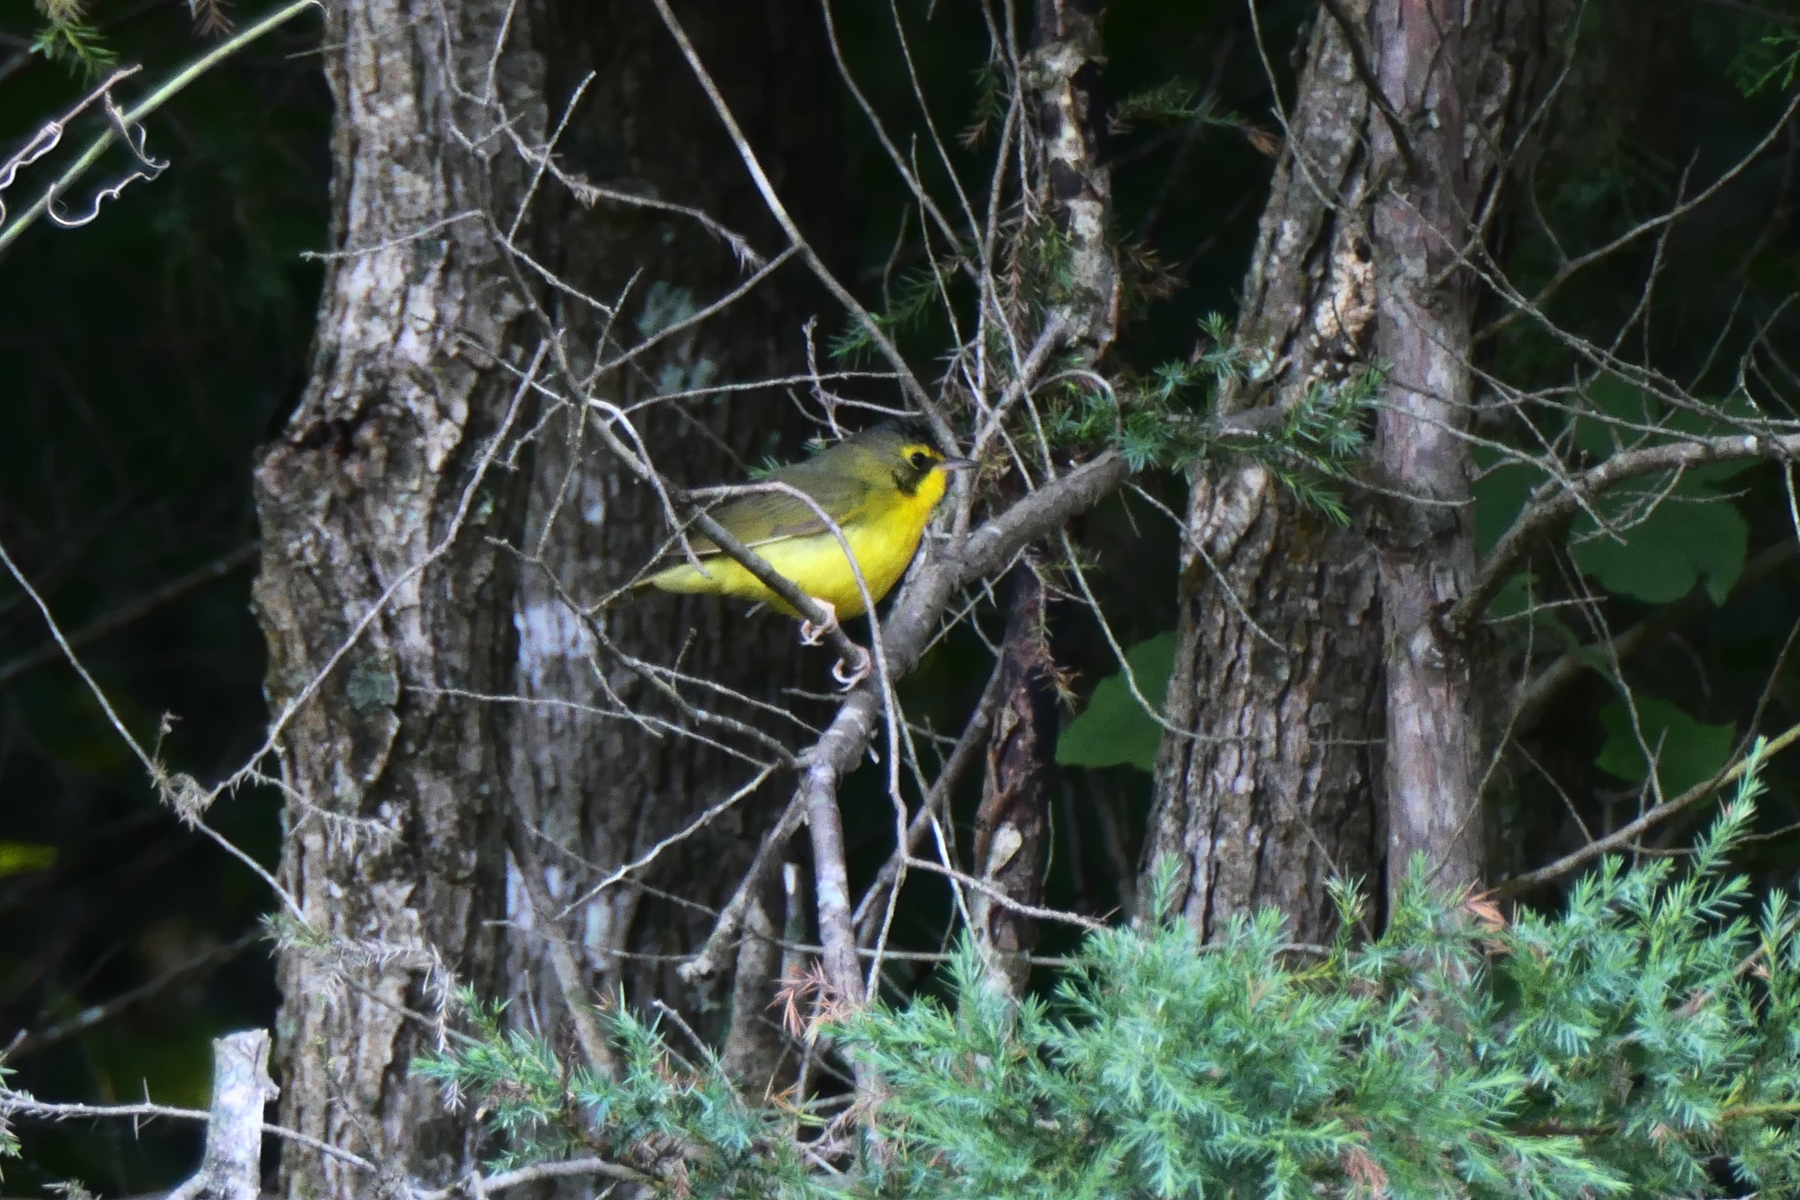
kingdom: Animalia
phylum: Chordata
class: Aves
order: Passeriformes
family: Parulidae
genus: Geothlypis
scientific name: Geothlypis formosa
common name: Kentucky warbler
